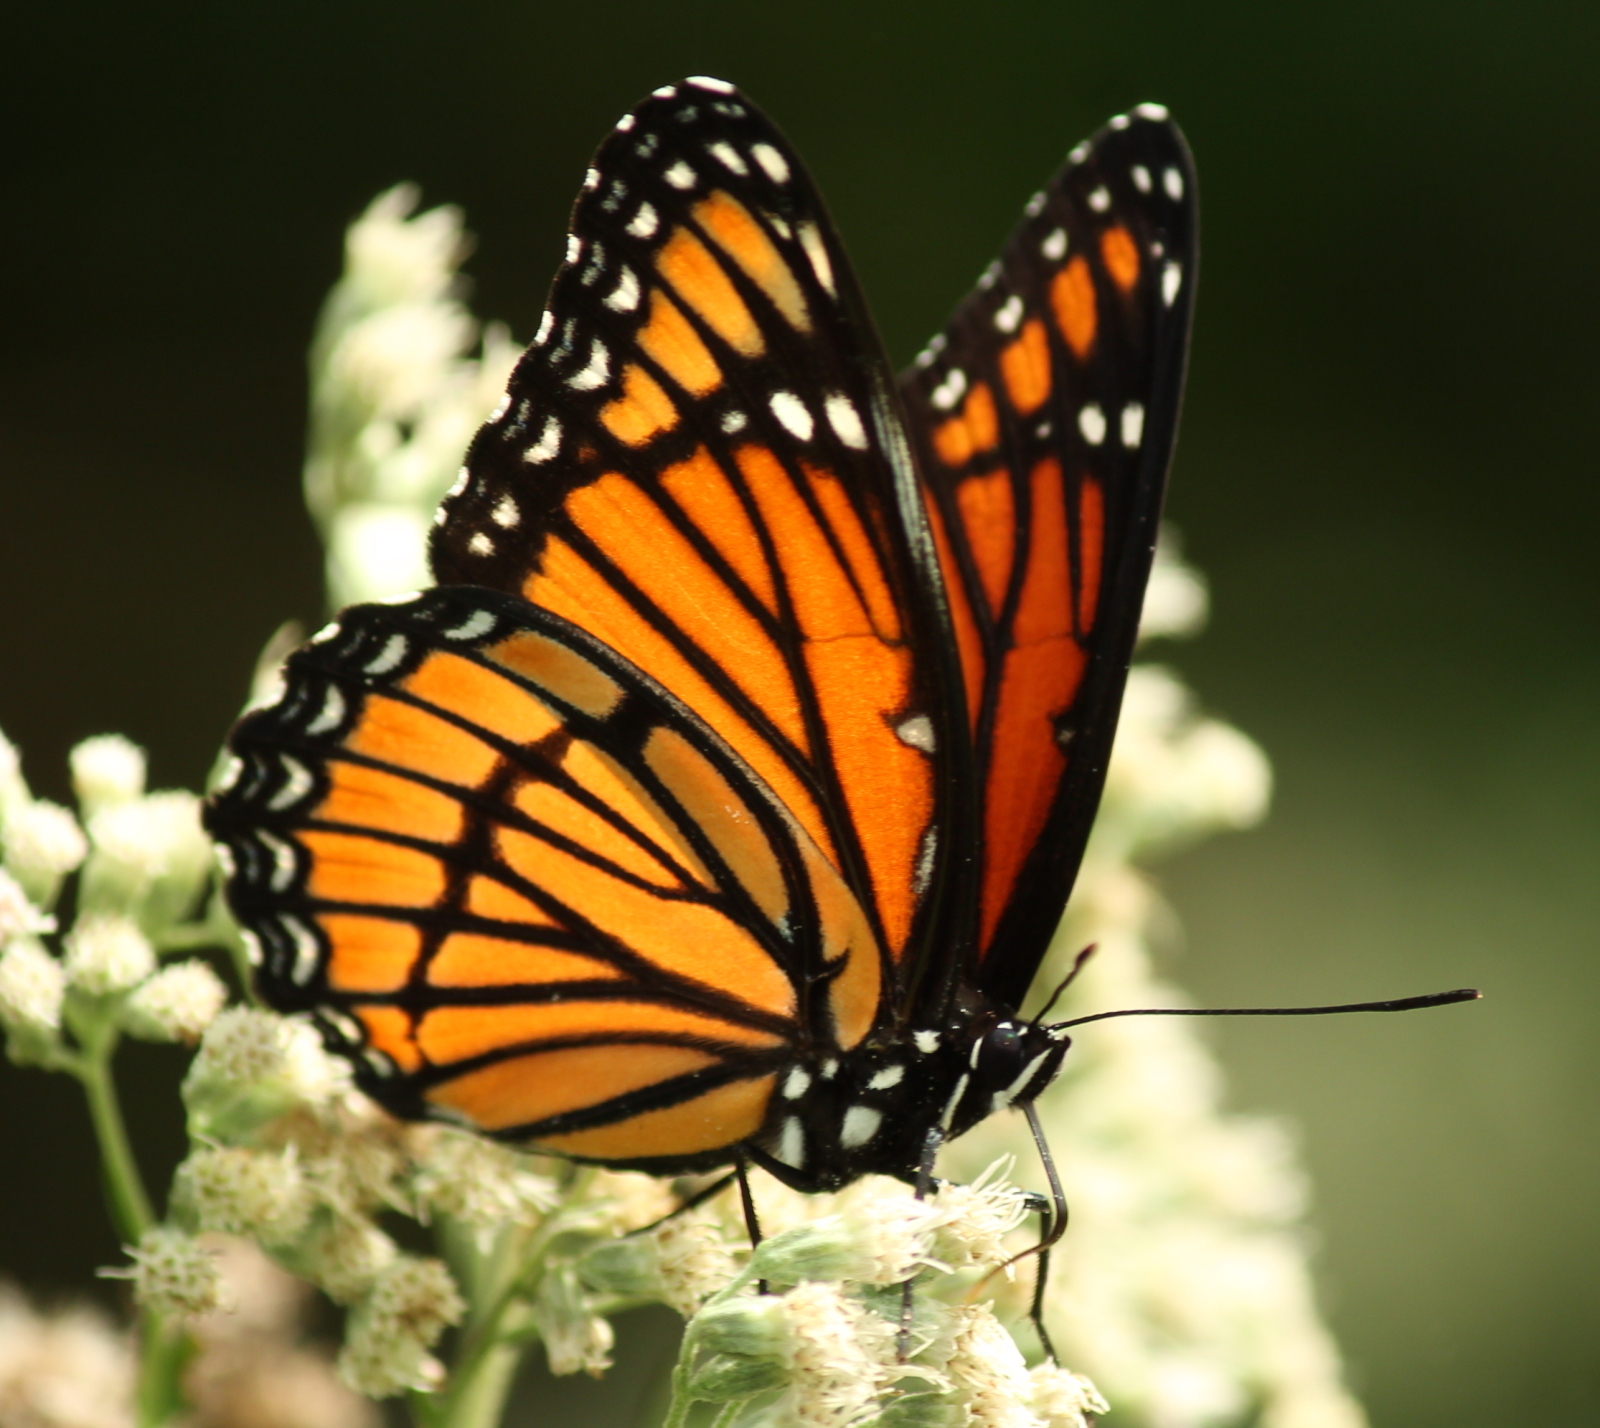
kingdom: Animalia
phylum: Arthropoda
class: Insecta
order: Lepidoptera
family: Nymphalidae
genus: Limenitis
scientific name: Limenitis archippus
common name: Viceroy
